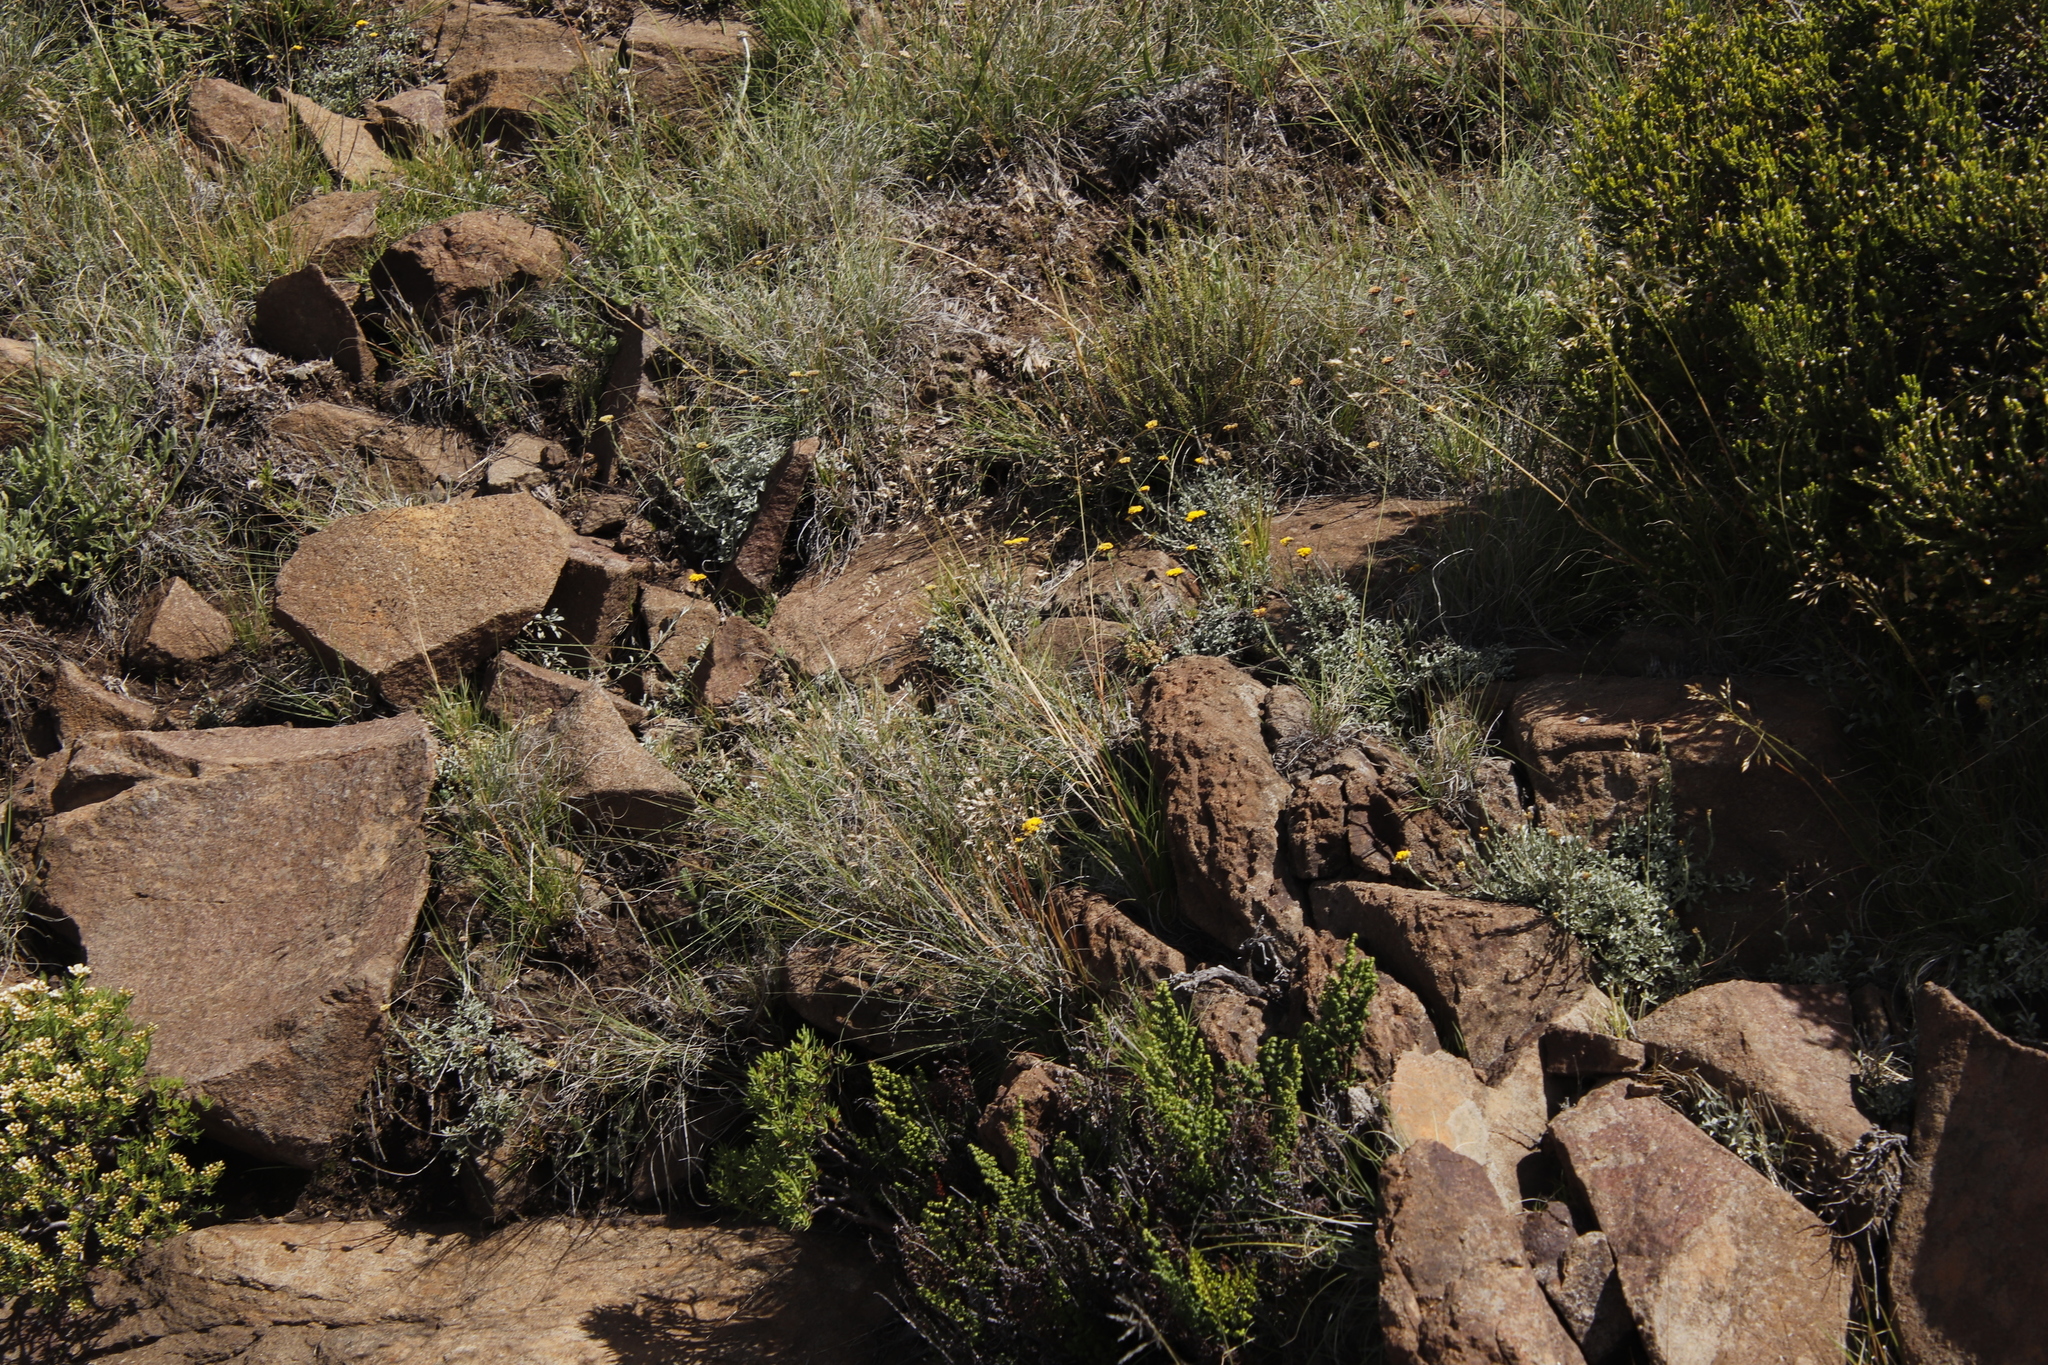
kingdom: Plantae
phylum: Tracheophyta
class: Polypodiopsida
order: Polypodiales
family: Pteridaceae
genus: Cheilanthes
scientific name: Cheilanthes quadripinnata
